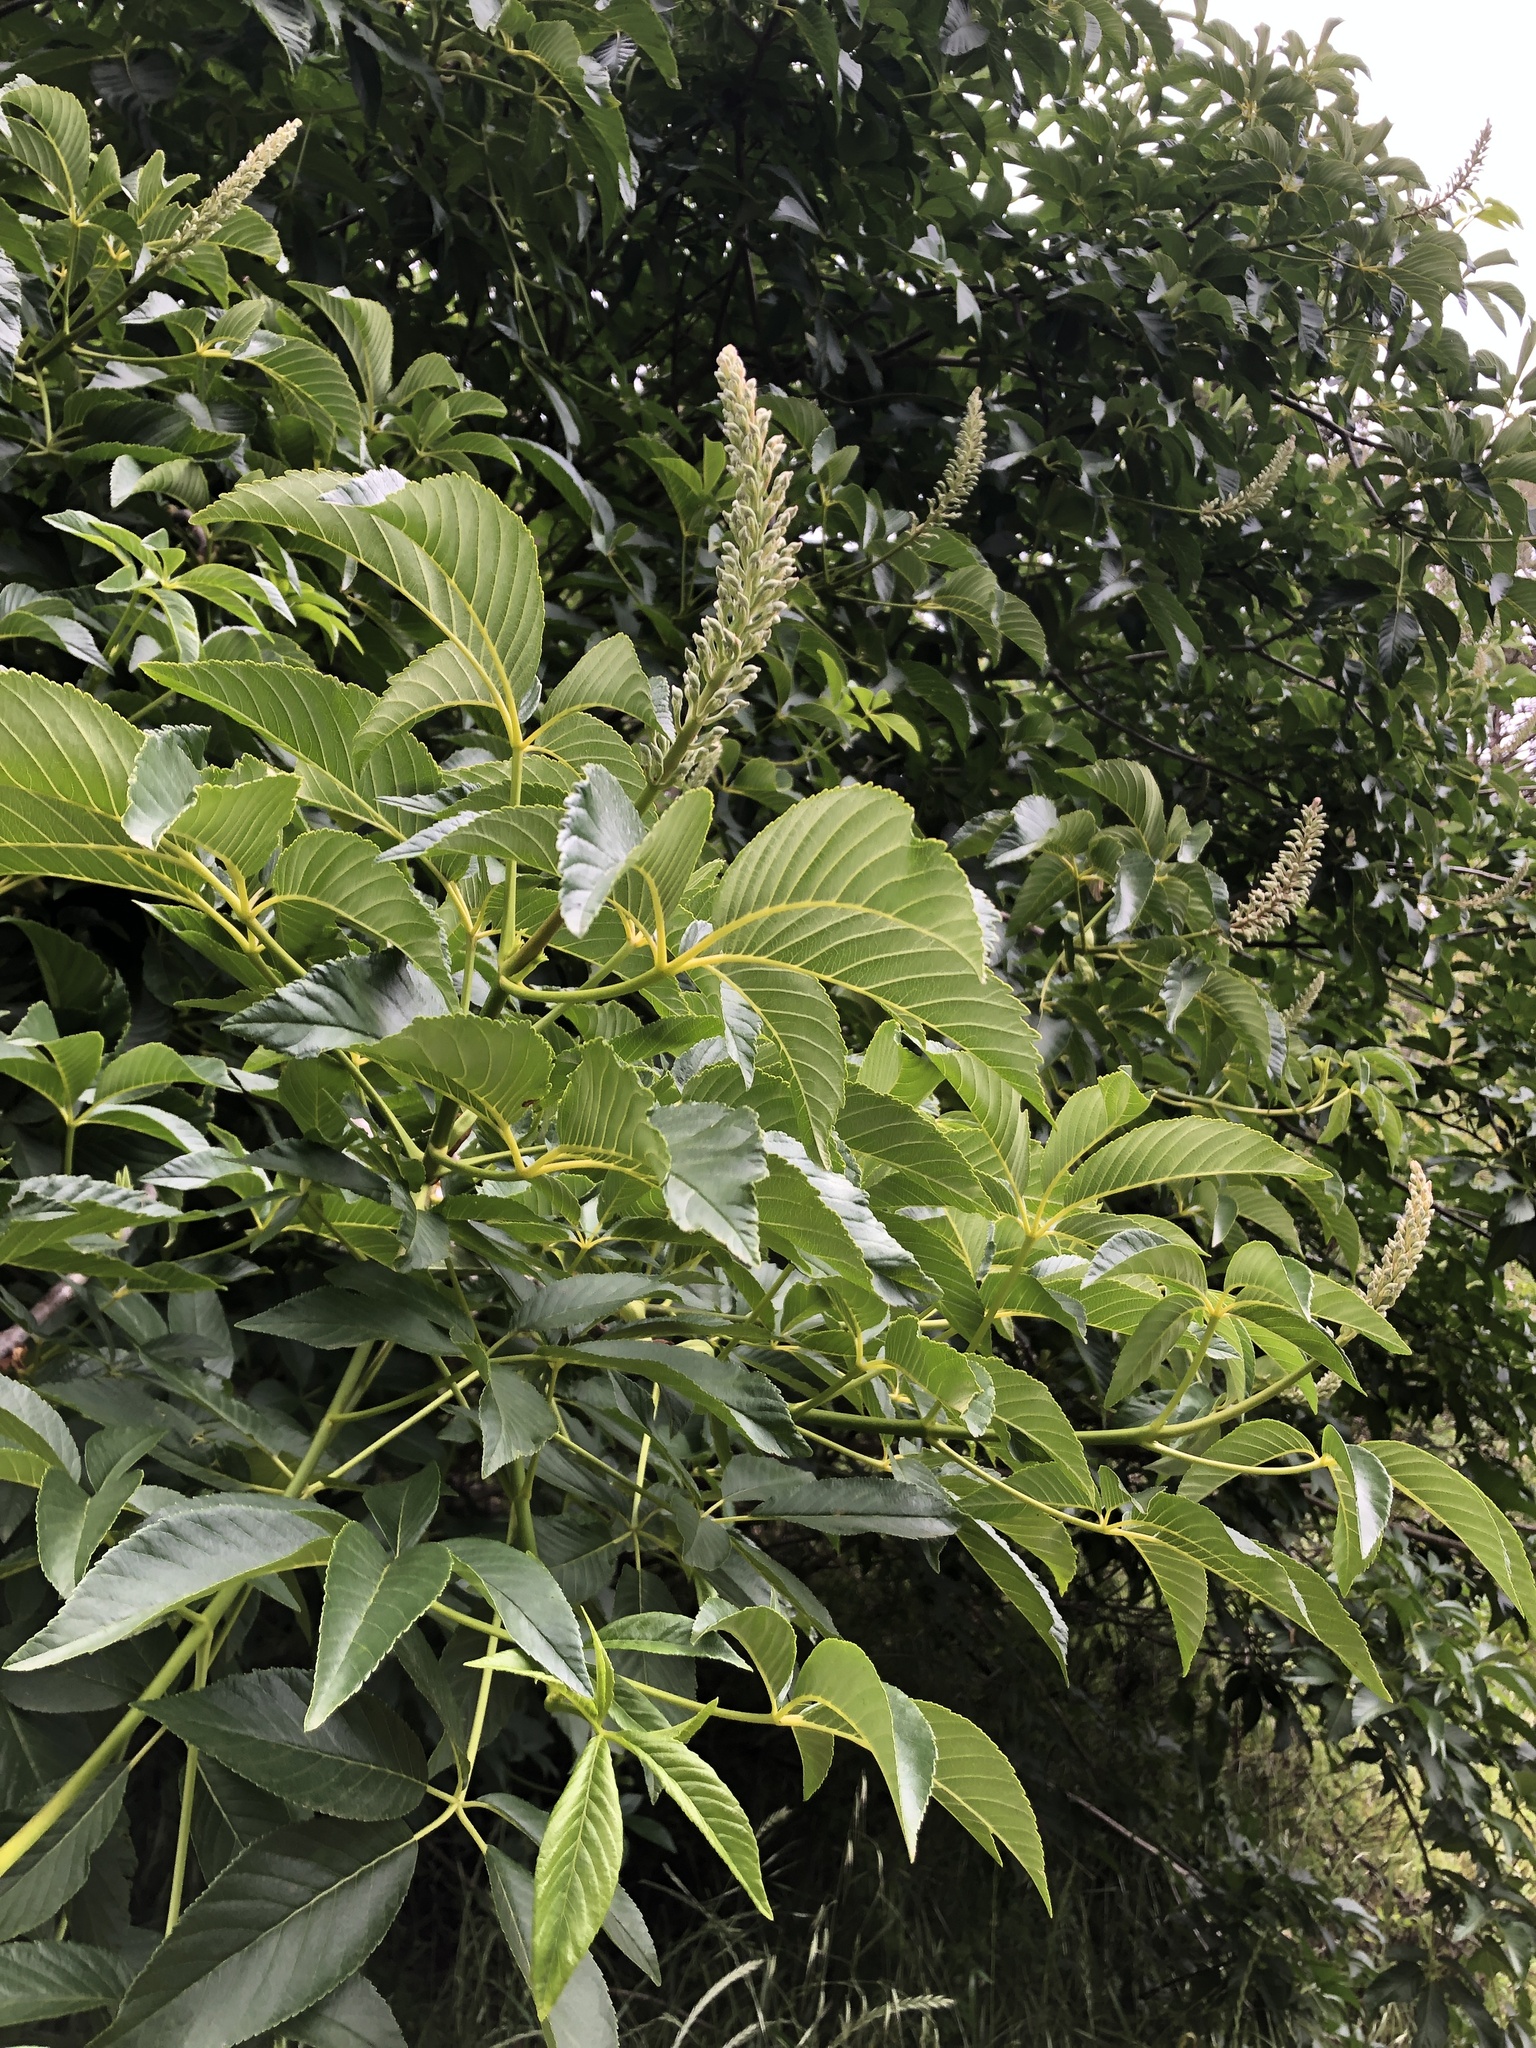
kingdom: Plantae
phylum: Tracheophyta
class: Magnoliopsida
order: Sapindales
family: Sapindaceae
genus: Aesculus
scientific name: Aesculus californica
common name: California buckeye
